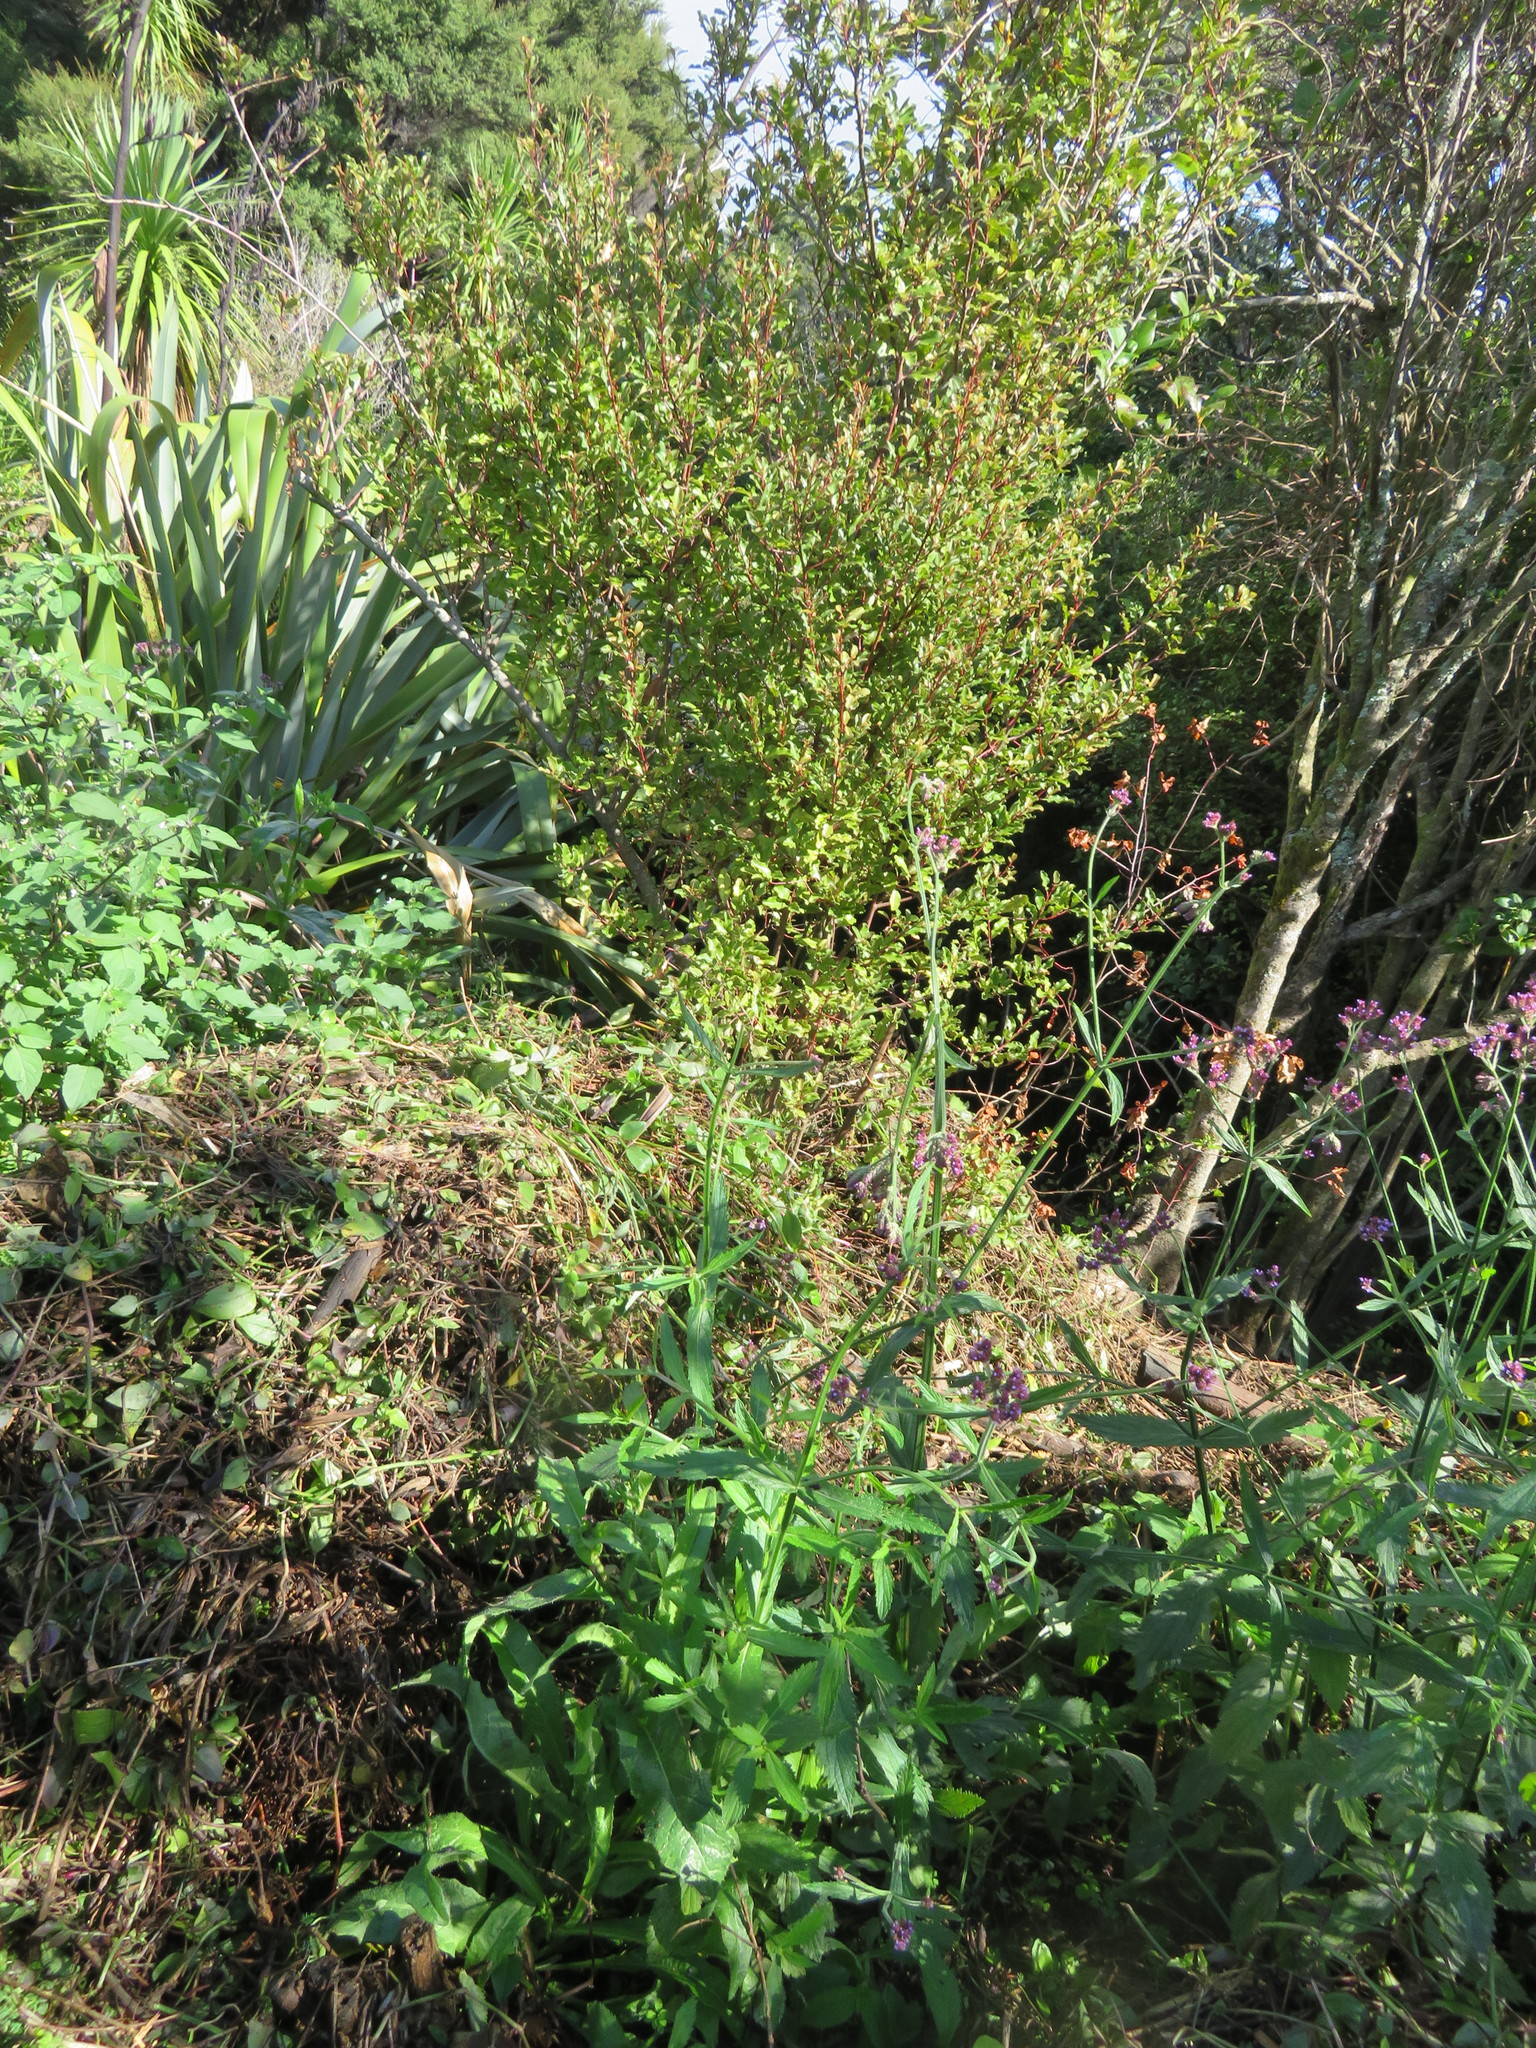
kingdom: Plantae
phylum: Tracheophyta
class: Magnoliopsida
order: Ericales
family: Primulaceae
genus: Myrsine
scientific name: Myrsine australis
